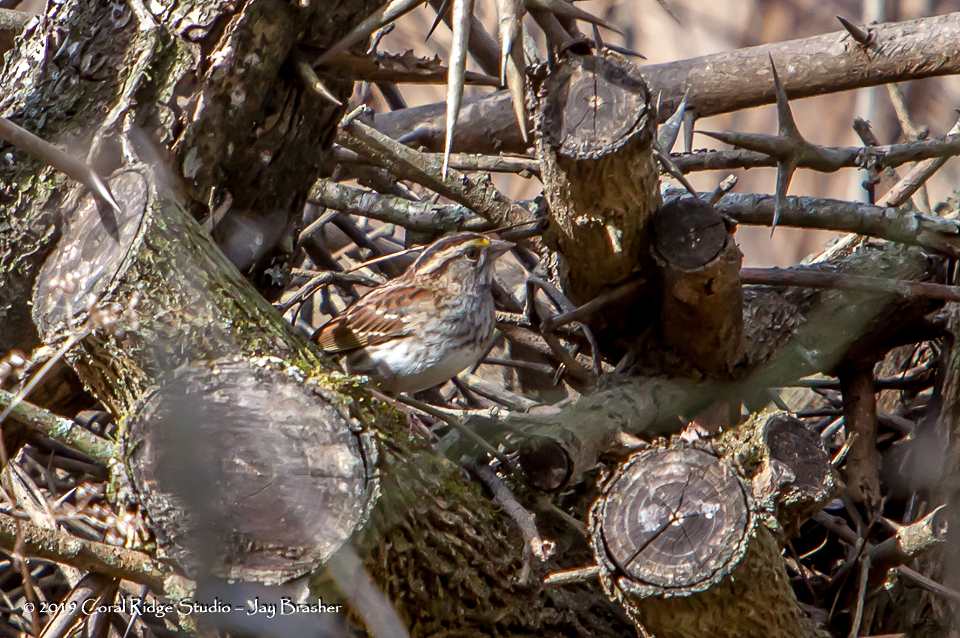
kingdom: Animalia
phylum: Chordata
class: Aves
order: Passeriformes
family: Passerellidae
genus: Zonotrichia
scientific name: Zonotrichia albicollis
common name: White-throated sparrow
